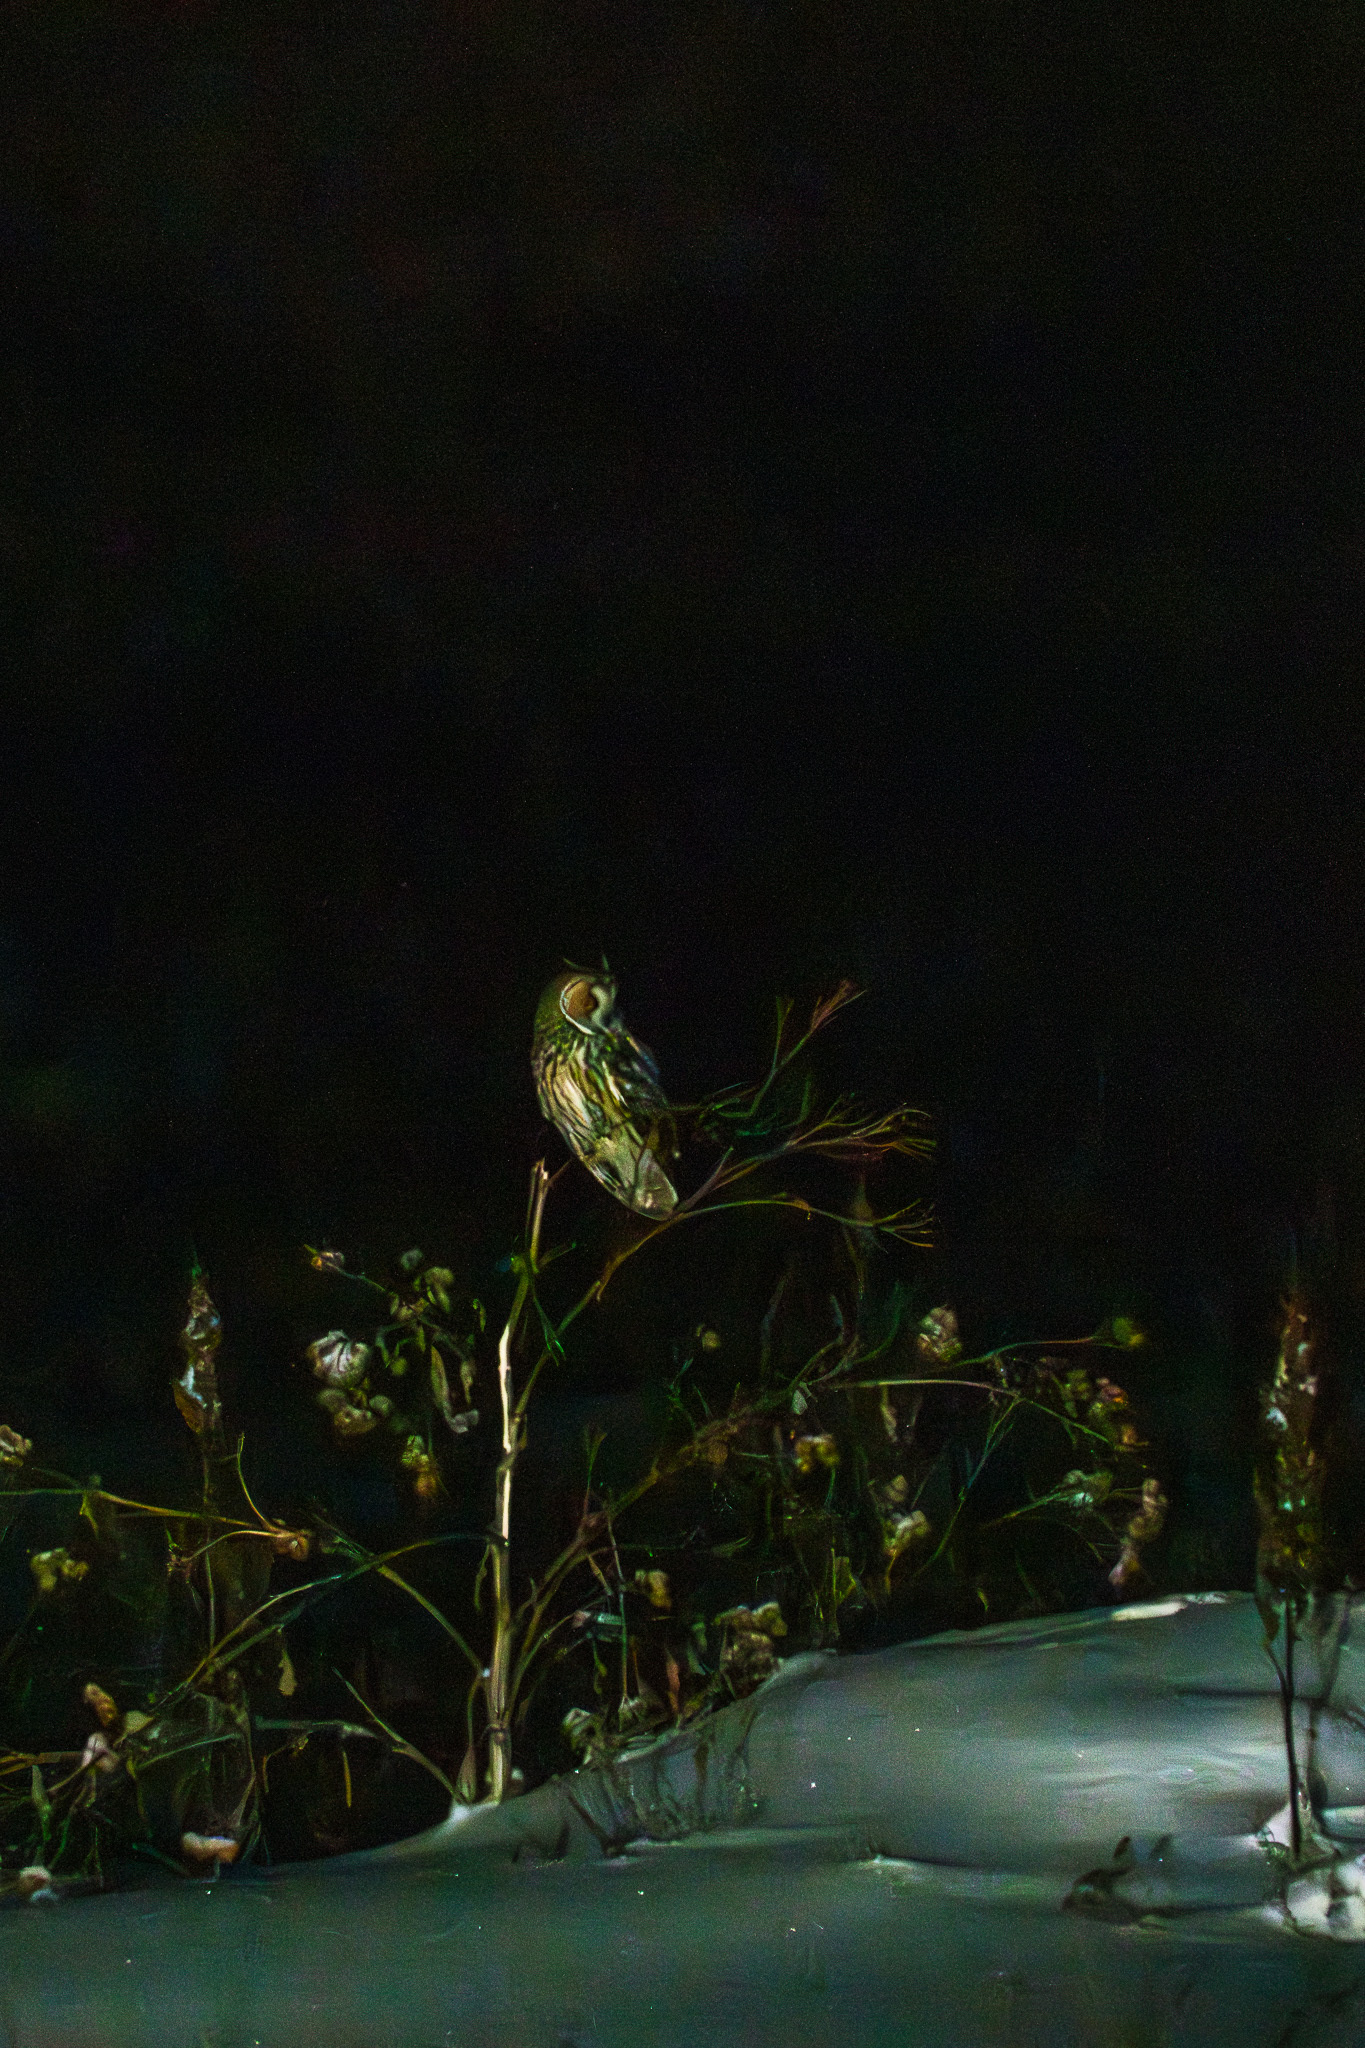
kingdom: Animalia
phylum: Chordata
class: Aves
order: Strigiformes
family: Strigidae
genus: Asio
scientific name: Asio otus
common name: Long-eared owl
